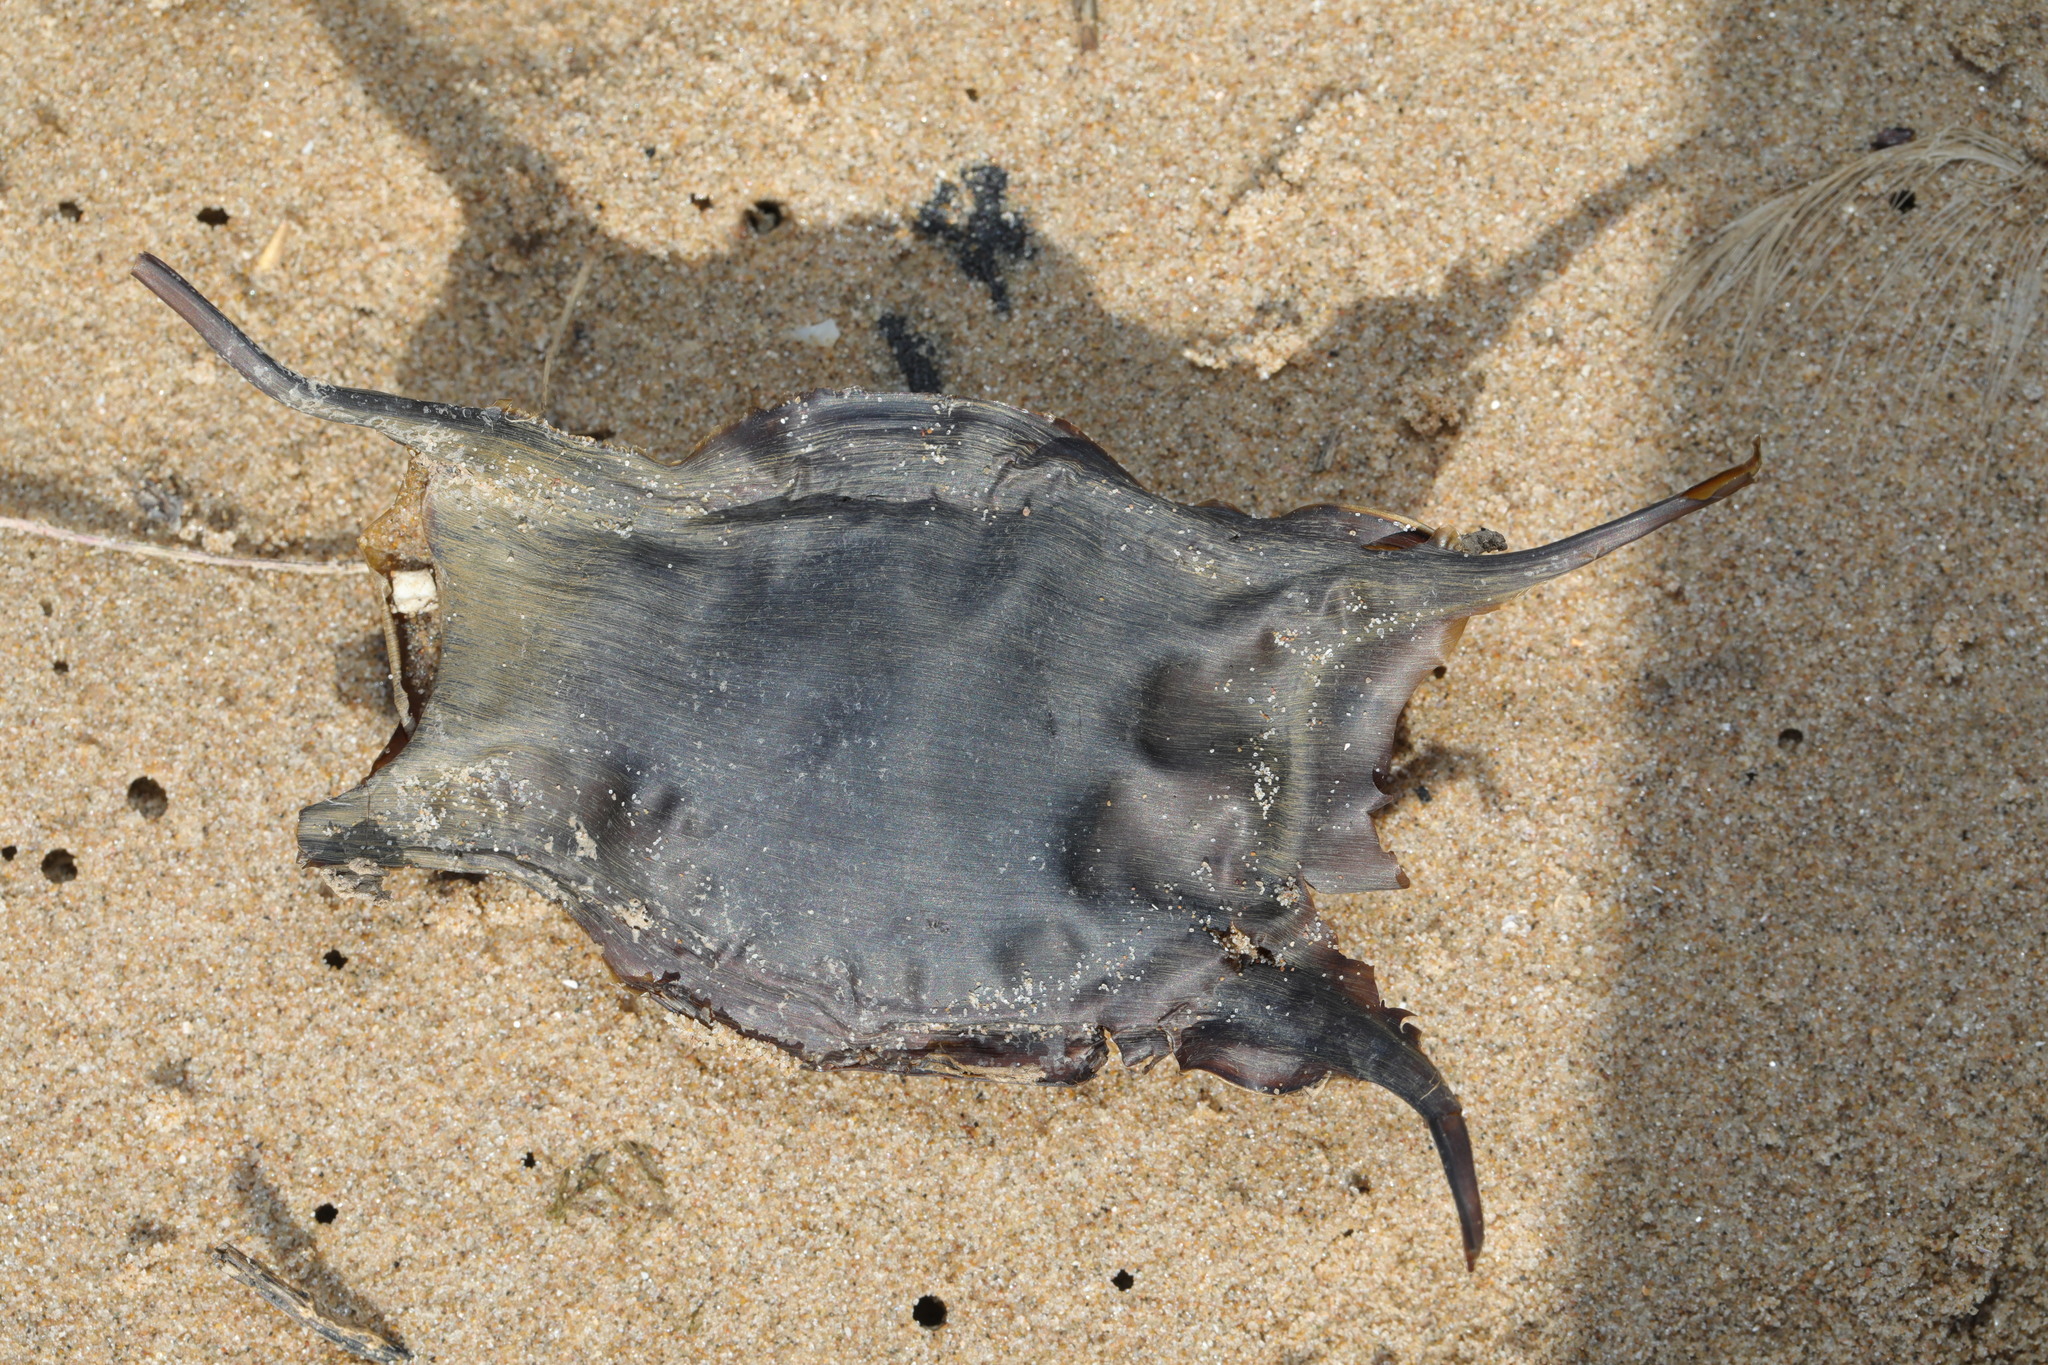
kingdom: Animalia
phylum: Chordata
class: Elasmobranchii
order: Rajiformes
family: Rajidae
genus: Raja
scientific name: Raja clavata
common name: Thornback ray
